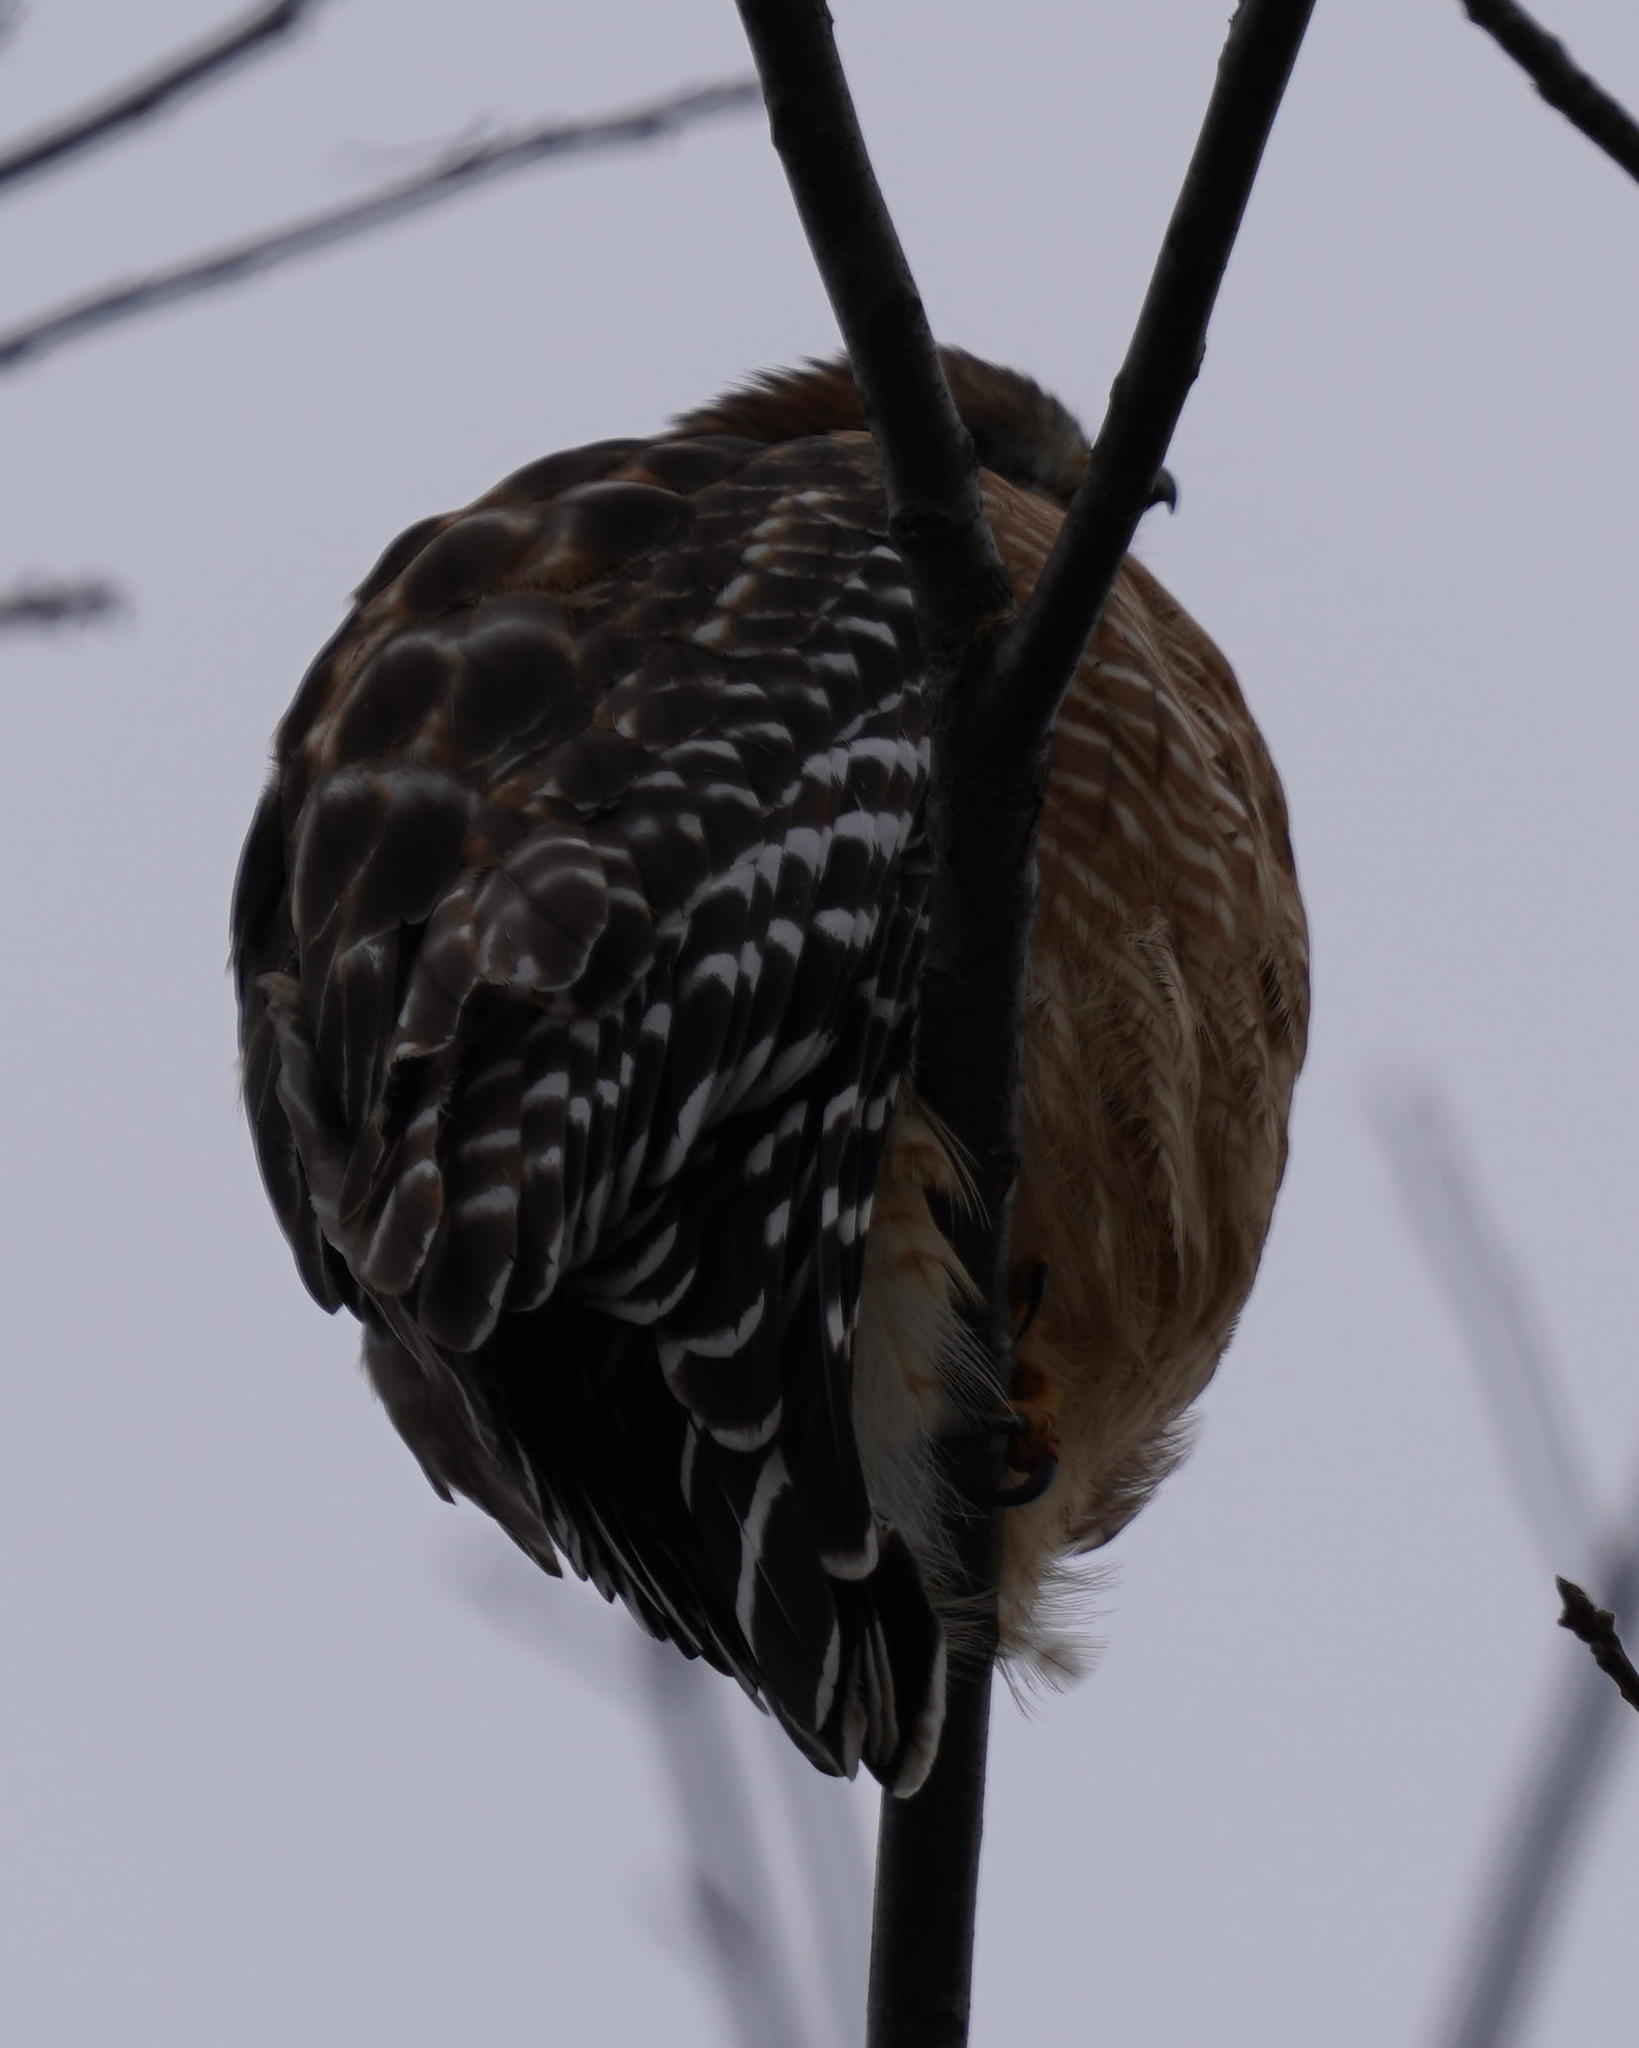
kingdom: Animalia
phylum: Chordata
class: Aves
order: Accipitriformes
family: Accipitridae
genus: Buteo
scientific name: Buteo lineatus
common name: Red-shouldered hawk
